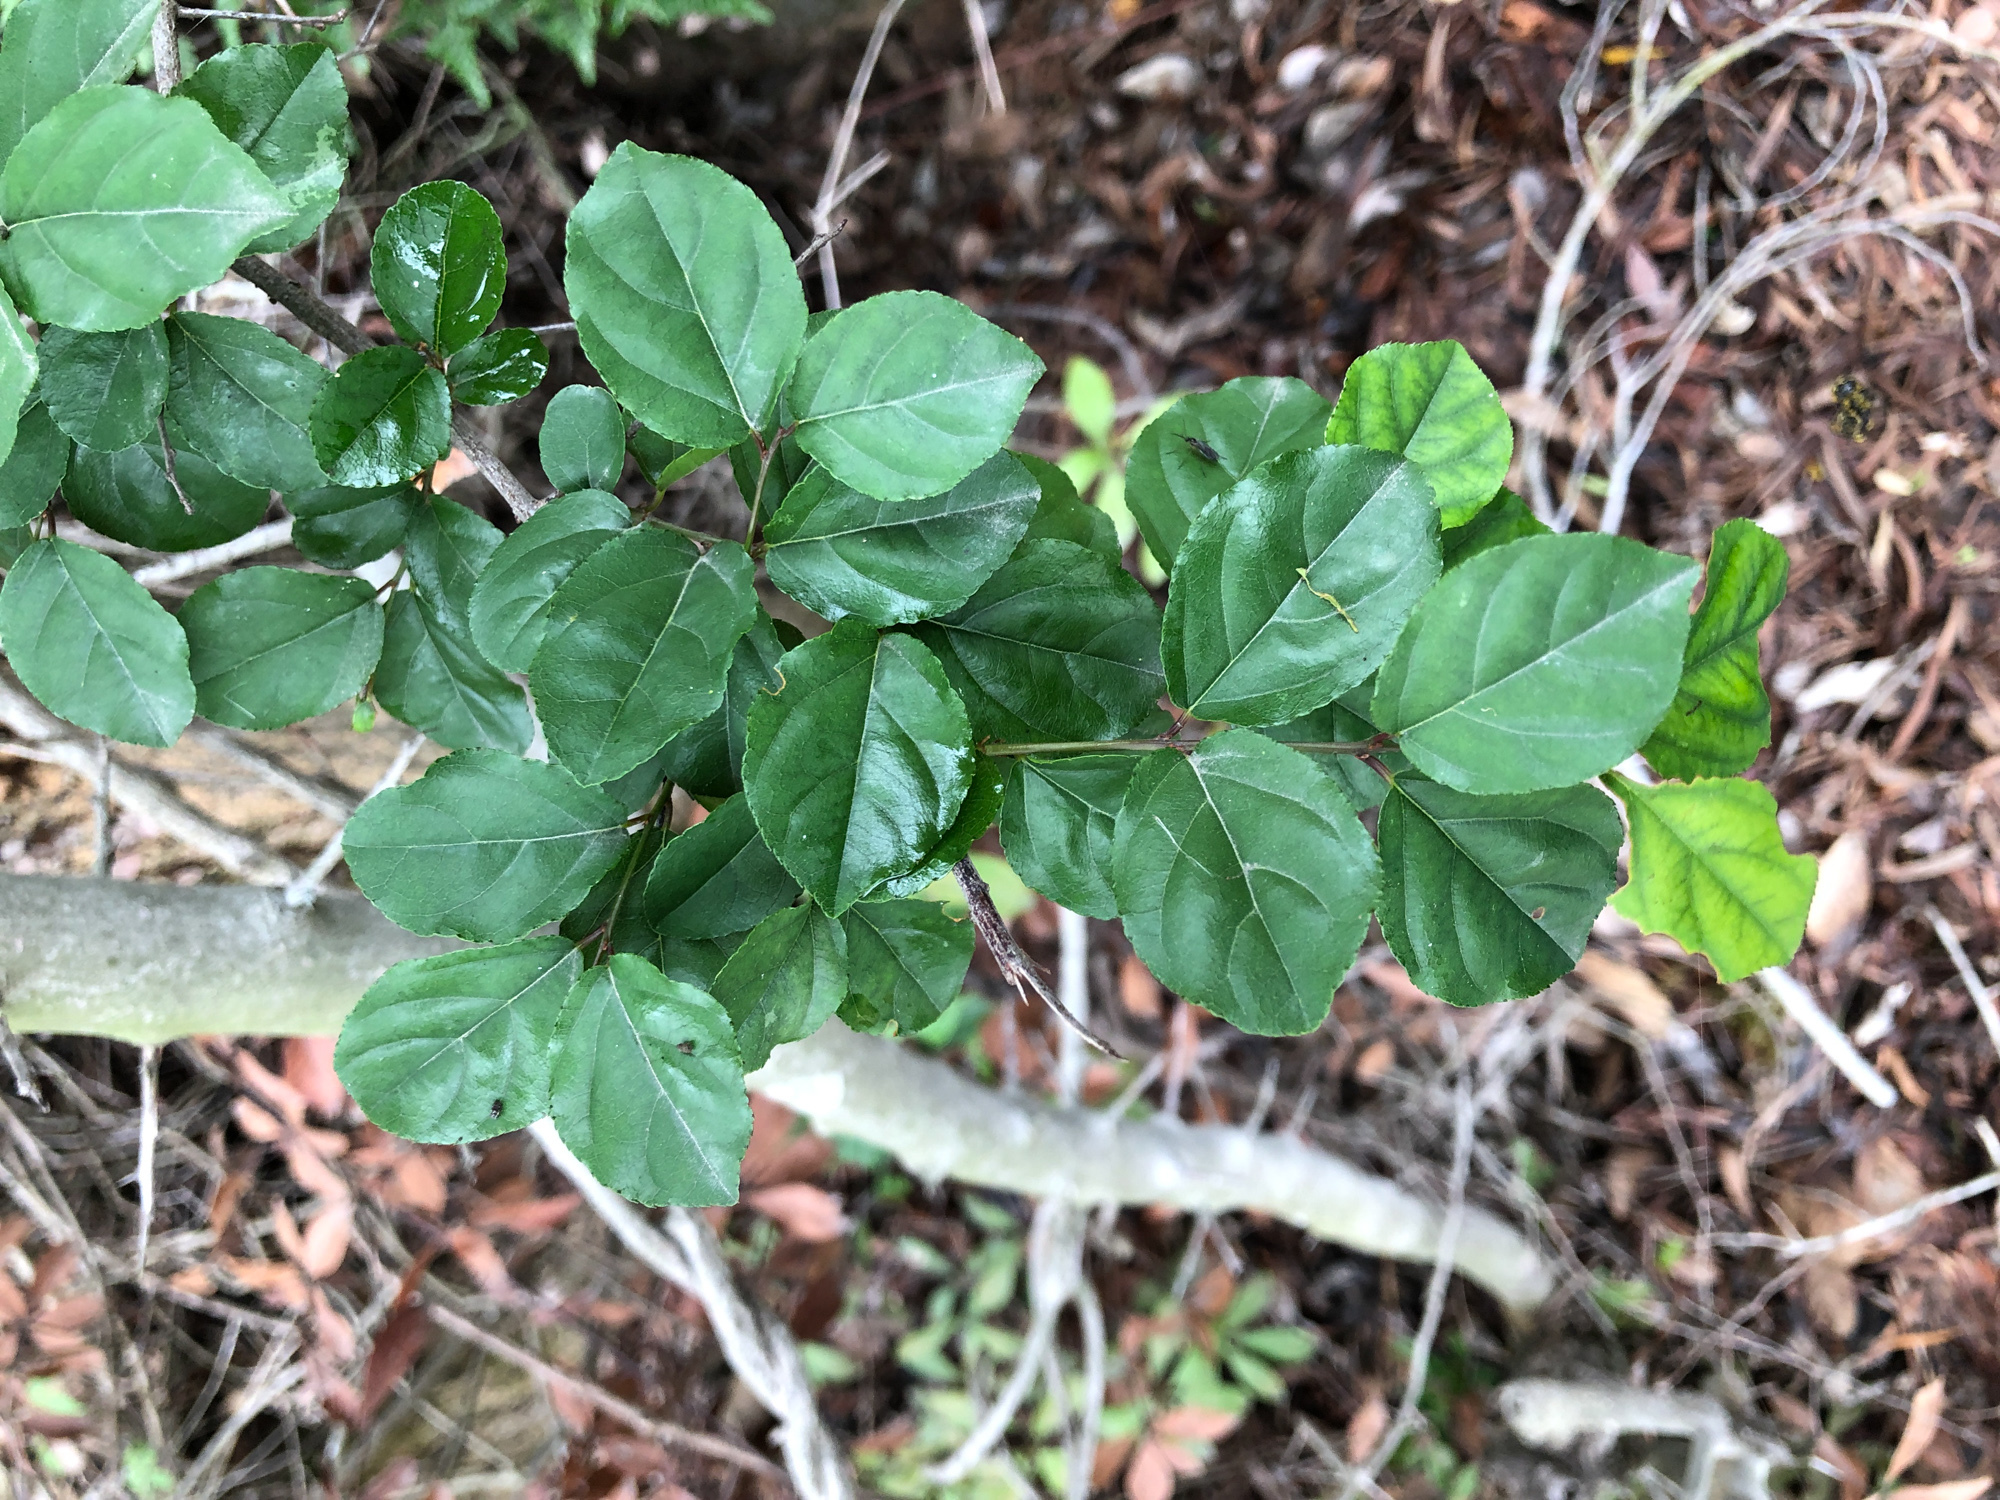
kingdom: Plantae
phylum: Tracheophyta
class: Magnoliopsida
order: Rosales
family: Rhamnaceae
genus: Sageretia
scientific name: Sageretia thea
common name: Pauper's-tea
